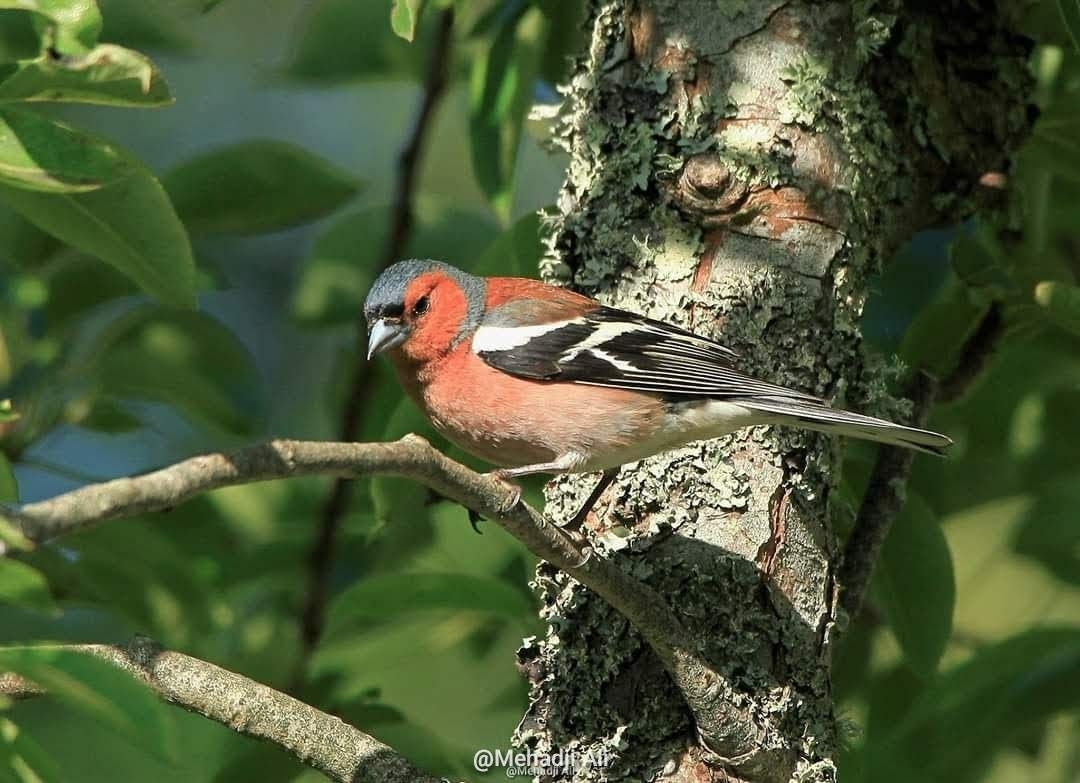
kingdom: Animalia
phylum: Chordata
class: Aves
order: Passeriformes
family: Fringillidae
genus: Fringilla
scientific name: Fringilla coelebs
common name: Common chaffinch
